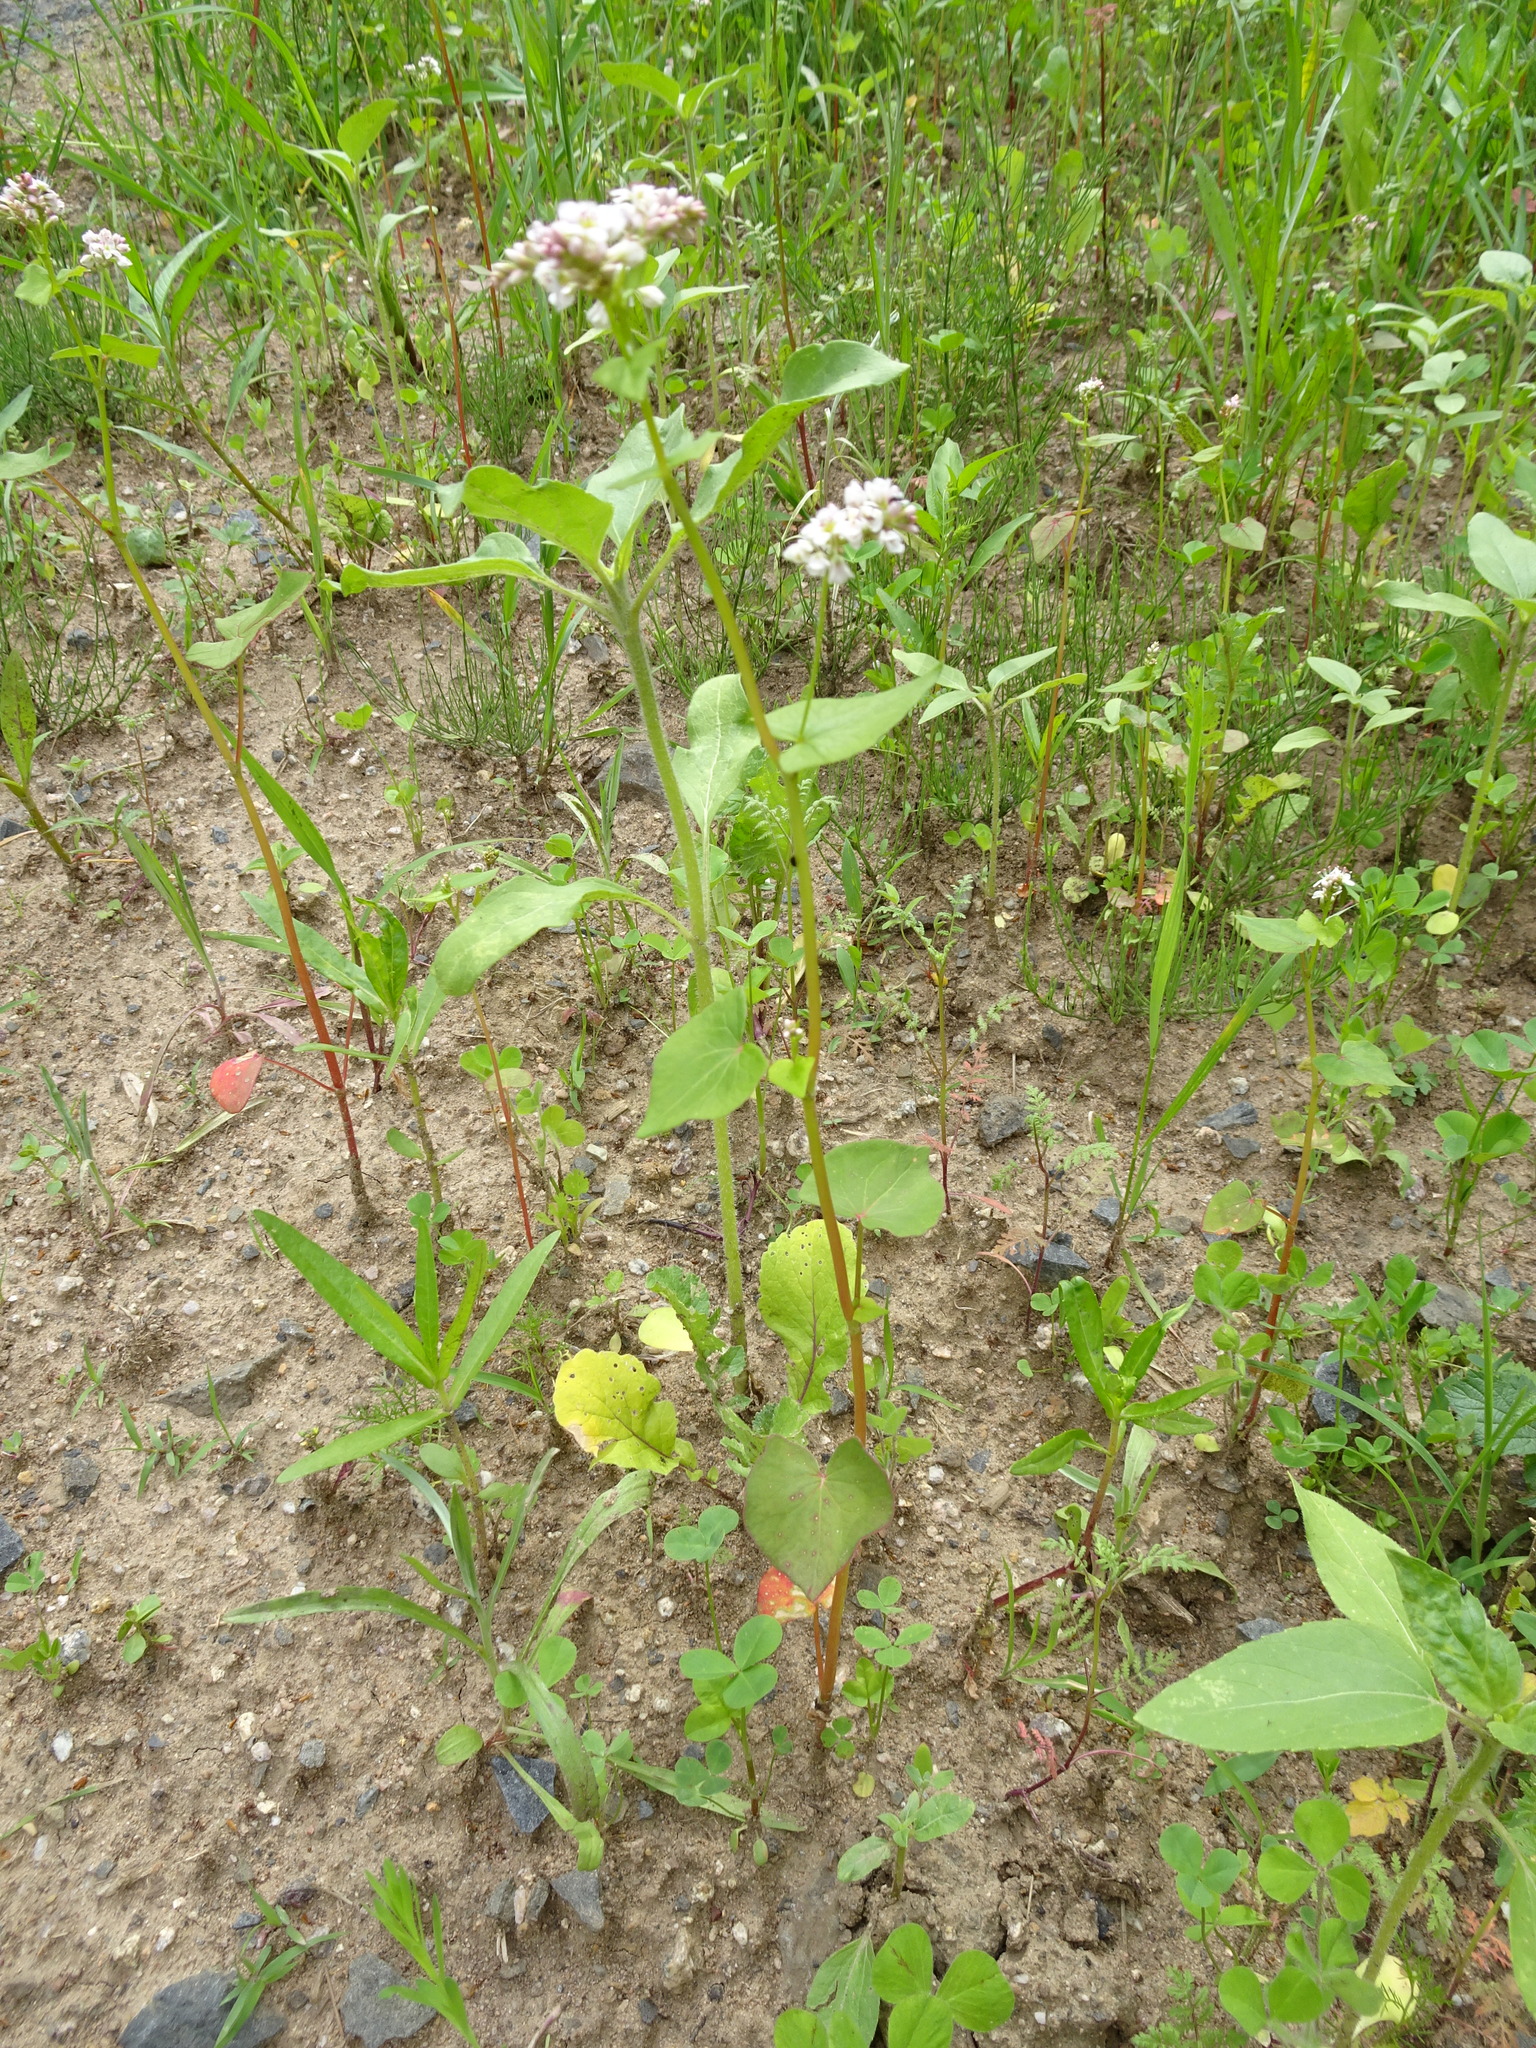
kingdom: Plantae
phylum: Tracheophyta
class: Magnoliopsida
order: Caryophyllales
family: Polygonaceae
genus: Fagopyrum
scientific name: Fagopyrum esculentum
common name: Buckwheat
